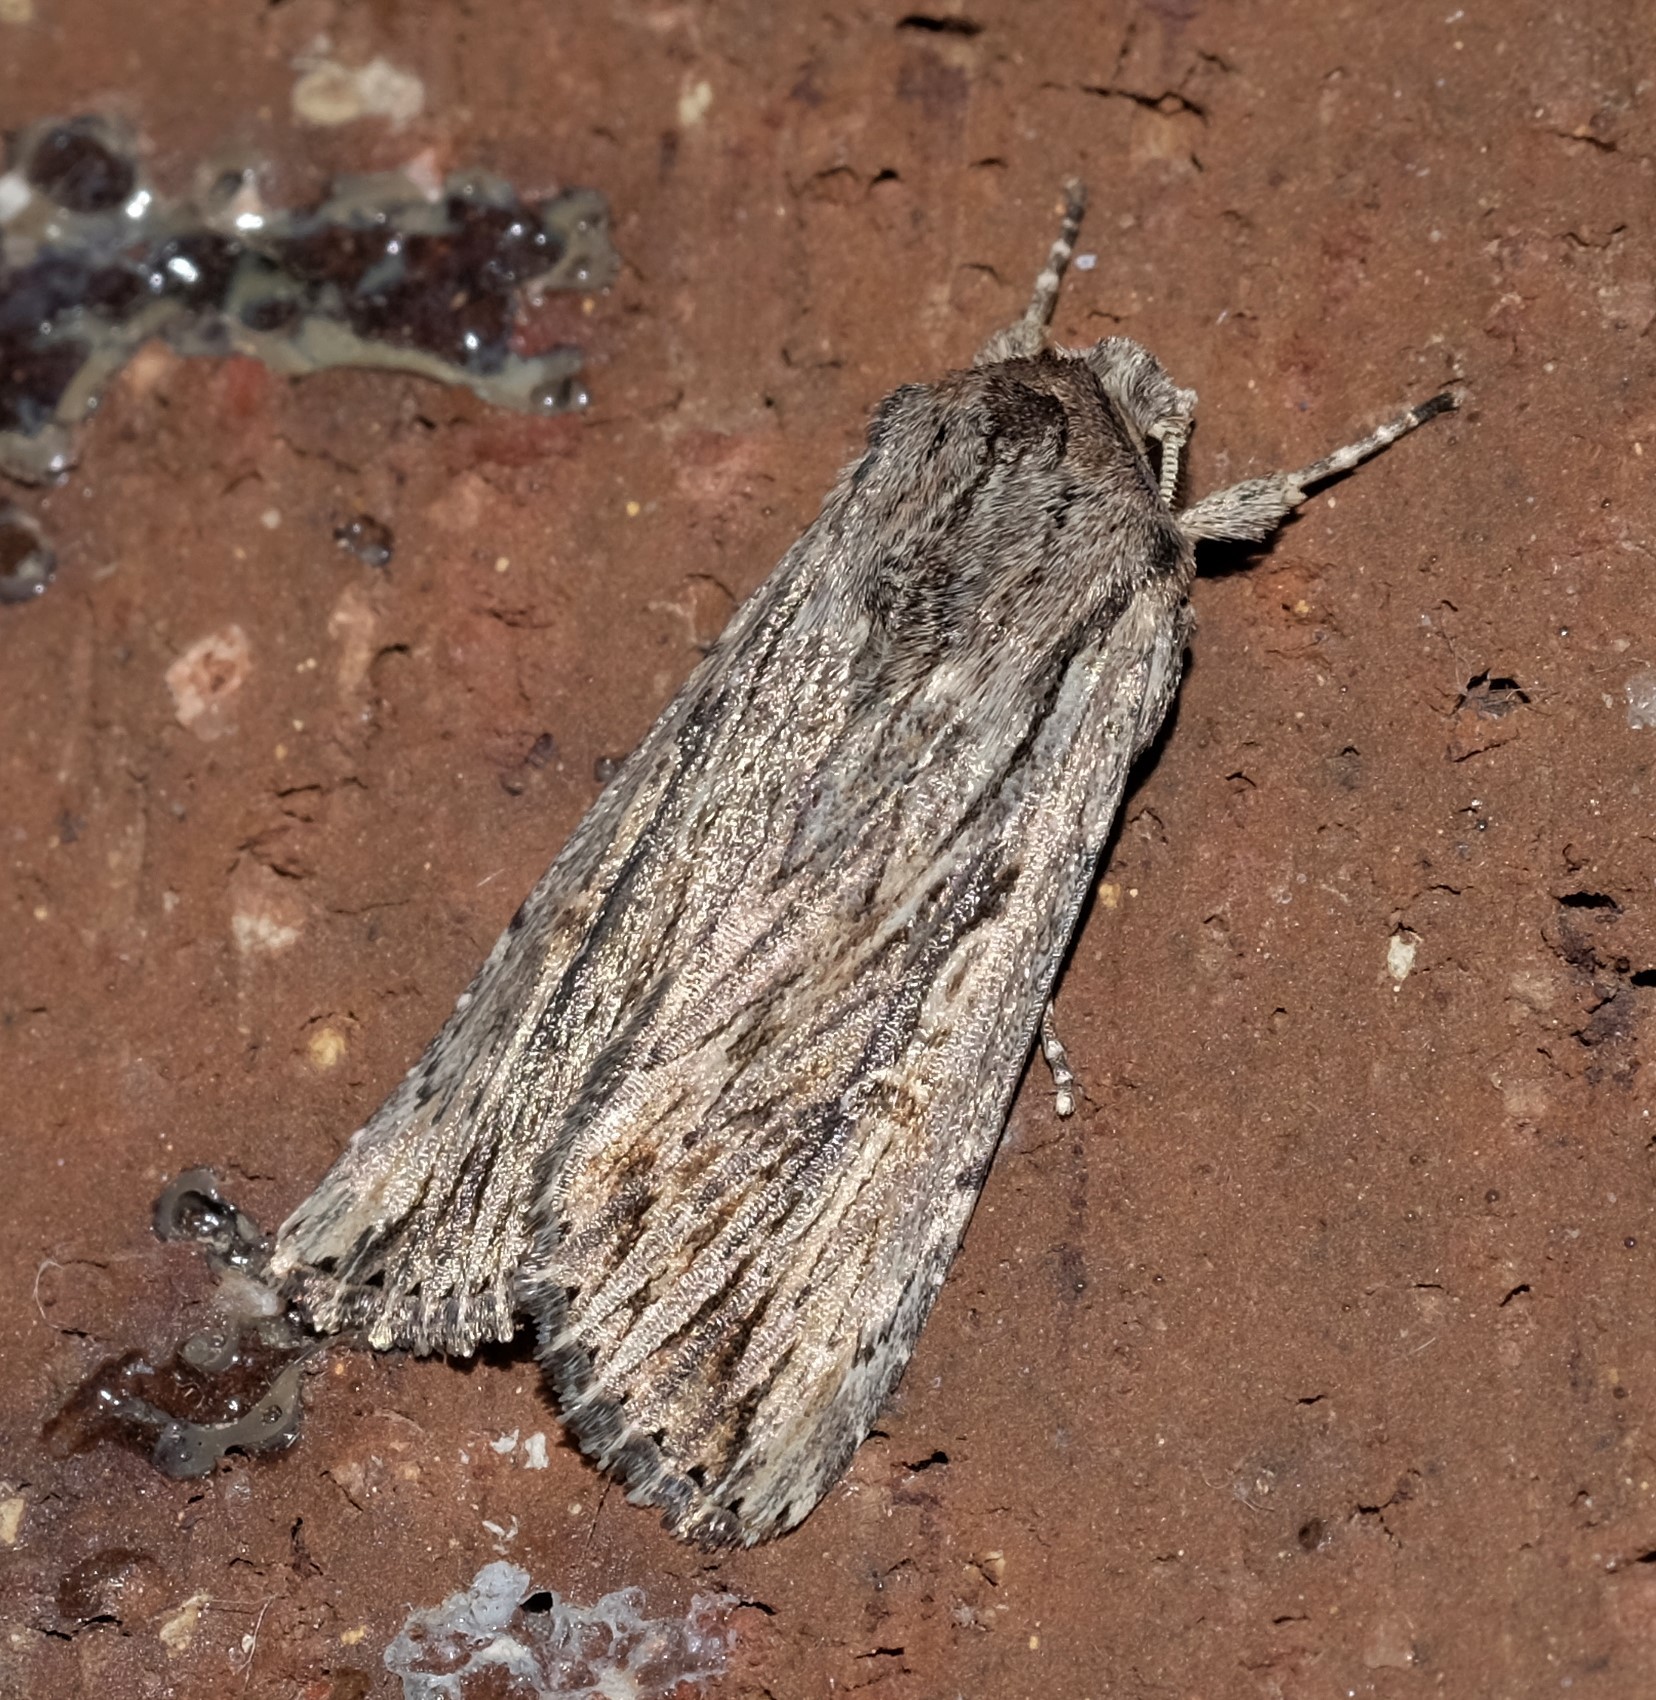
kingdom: Animalia
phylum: Arthropoda
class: Insecta
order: Lepidoptera
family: Noctuidae
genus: Persectania
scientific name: Persectania ewingii
